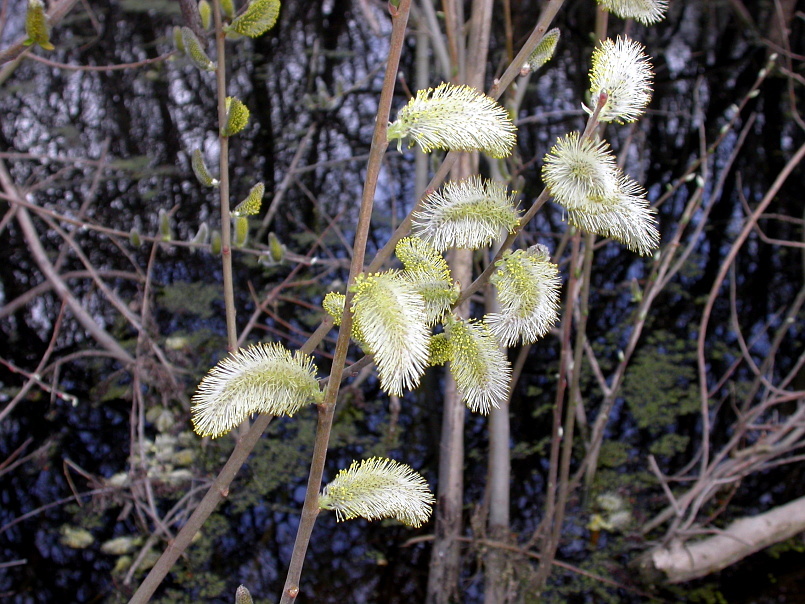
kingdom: Plantae
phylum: Tracheophyta
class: Magnoliopsida
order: Malpighiales
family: Salicaceae
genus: Salix
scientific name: Salix caprea
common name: Goat willow
